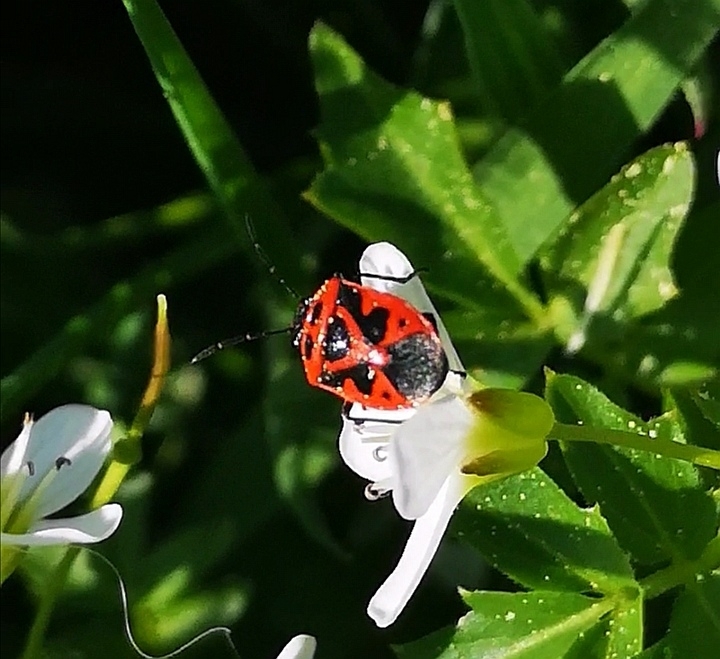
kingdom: Animalia
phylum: Arthropoda
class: Insecta
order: Hemiptera
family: Pentatomidae
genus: Eurydema
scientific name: Eurydema dominulus
